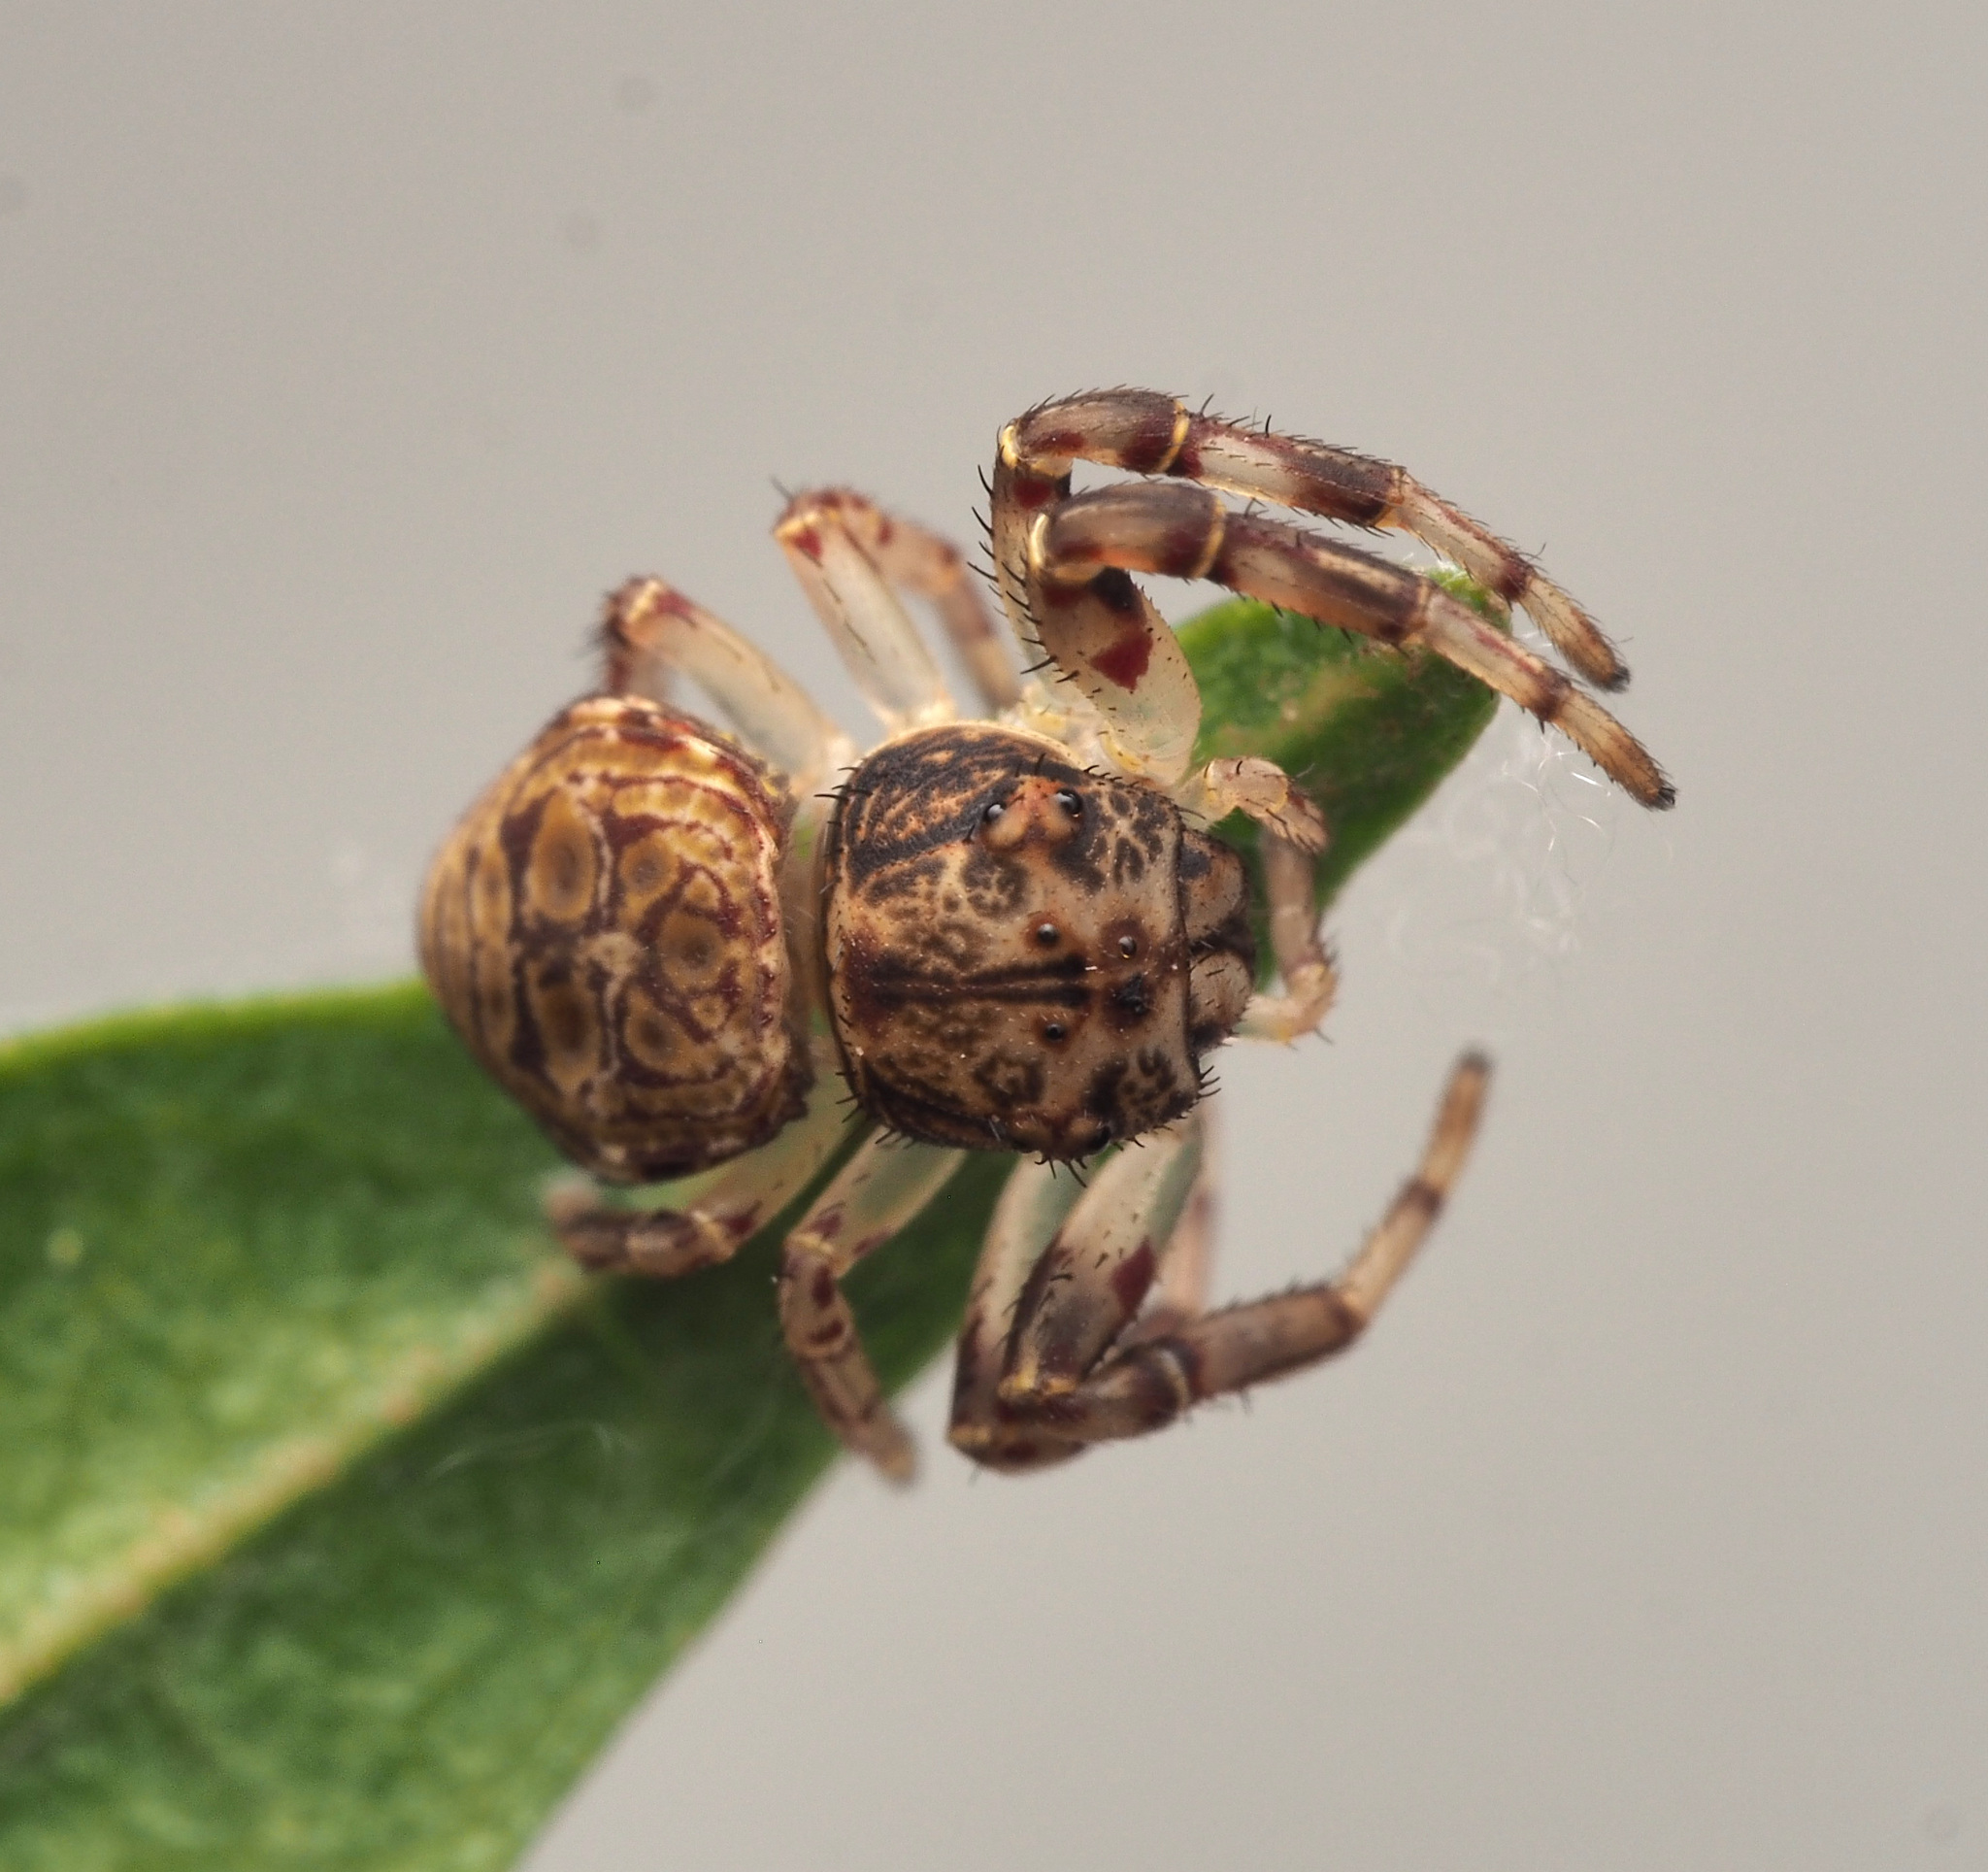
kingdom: Animalia
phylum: Arthropoda
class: Arachnida
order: Araneae
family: Thomisidae
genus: Cymbacha
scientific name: Cymbacha
